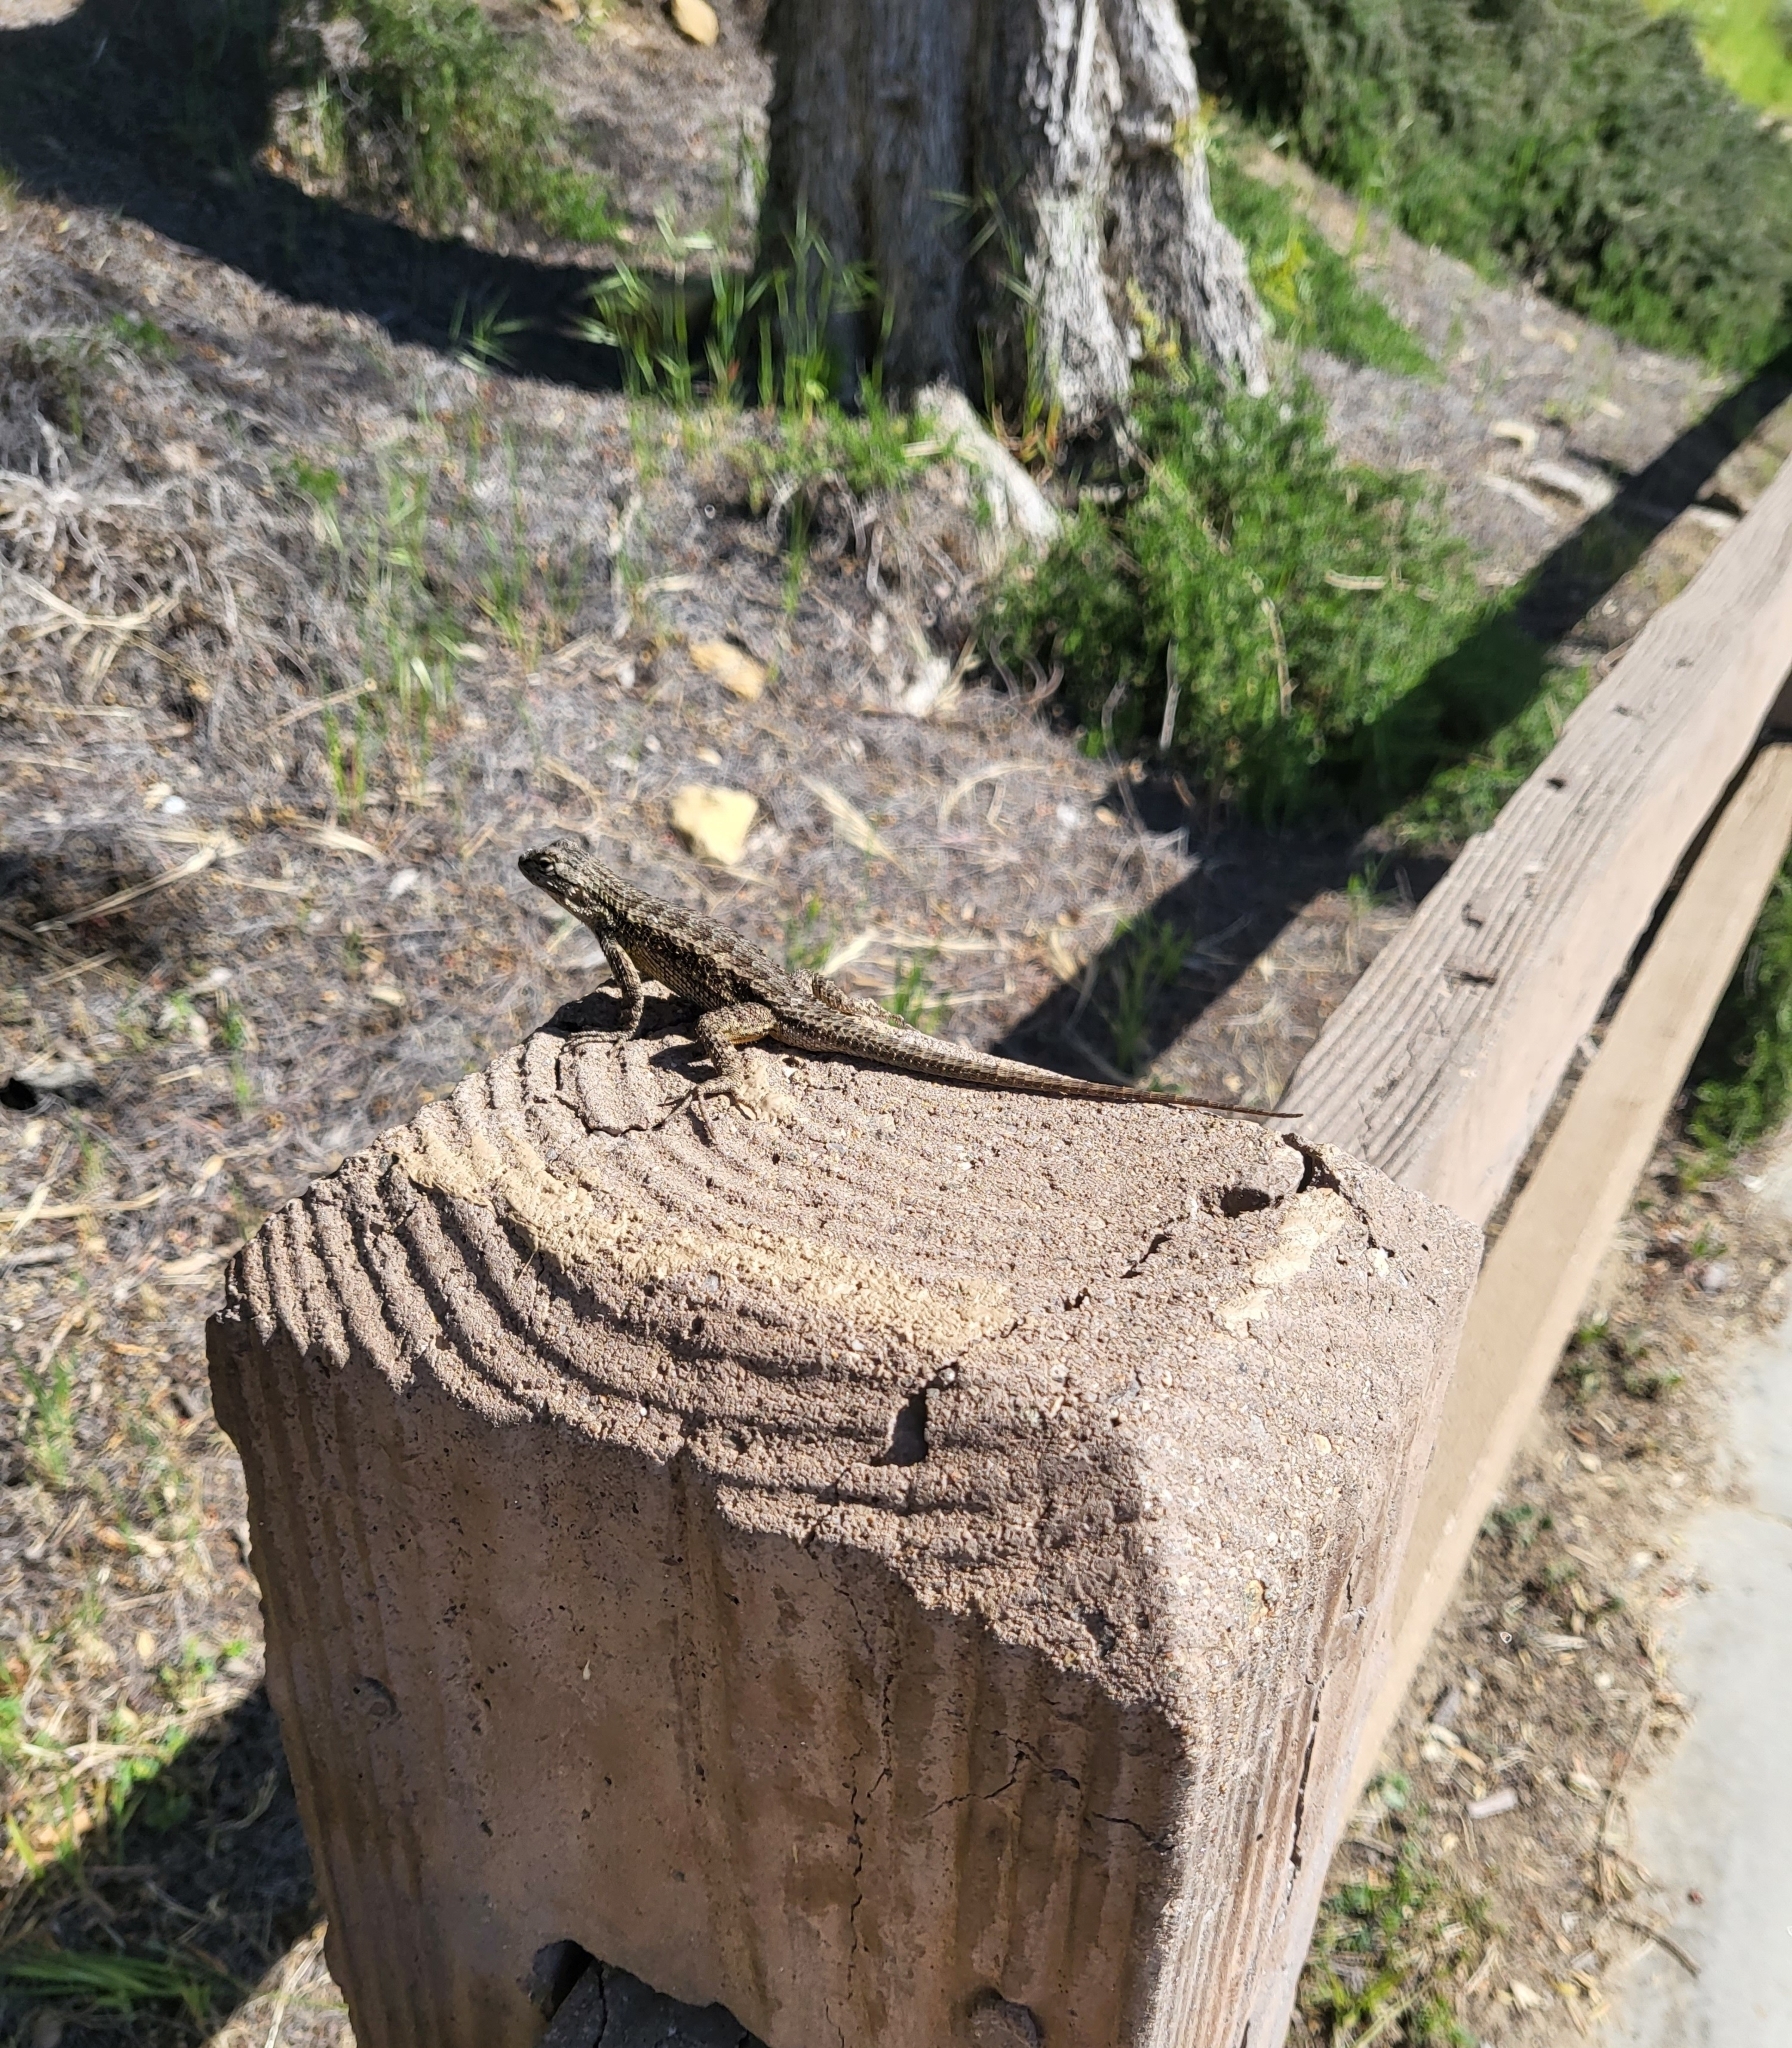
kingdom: Animalia
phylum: Chordata
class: Squamata
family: Phrynosomatidae
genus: Sceloporus
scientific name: Sceloporus occidentalis
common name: Western fence lizard
